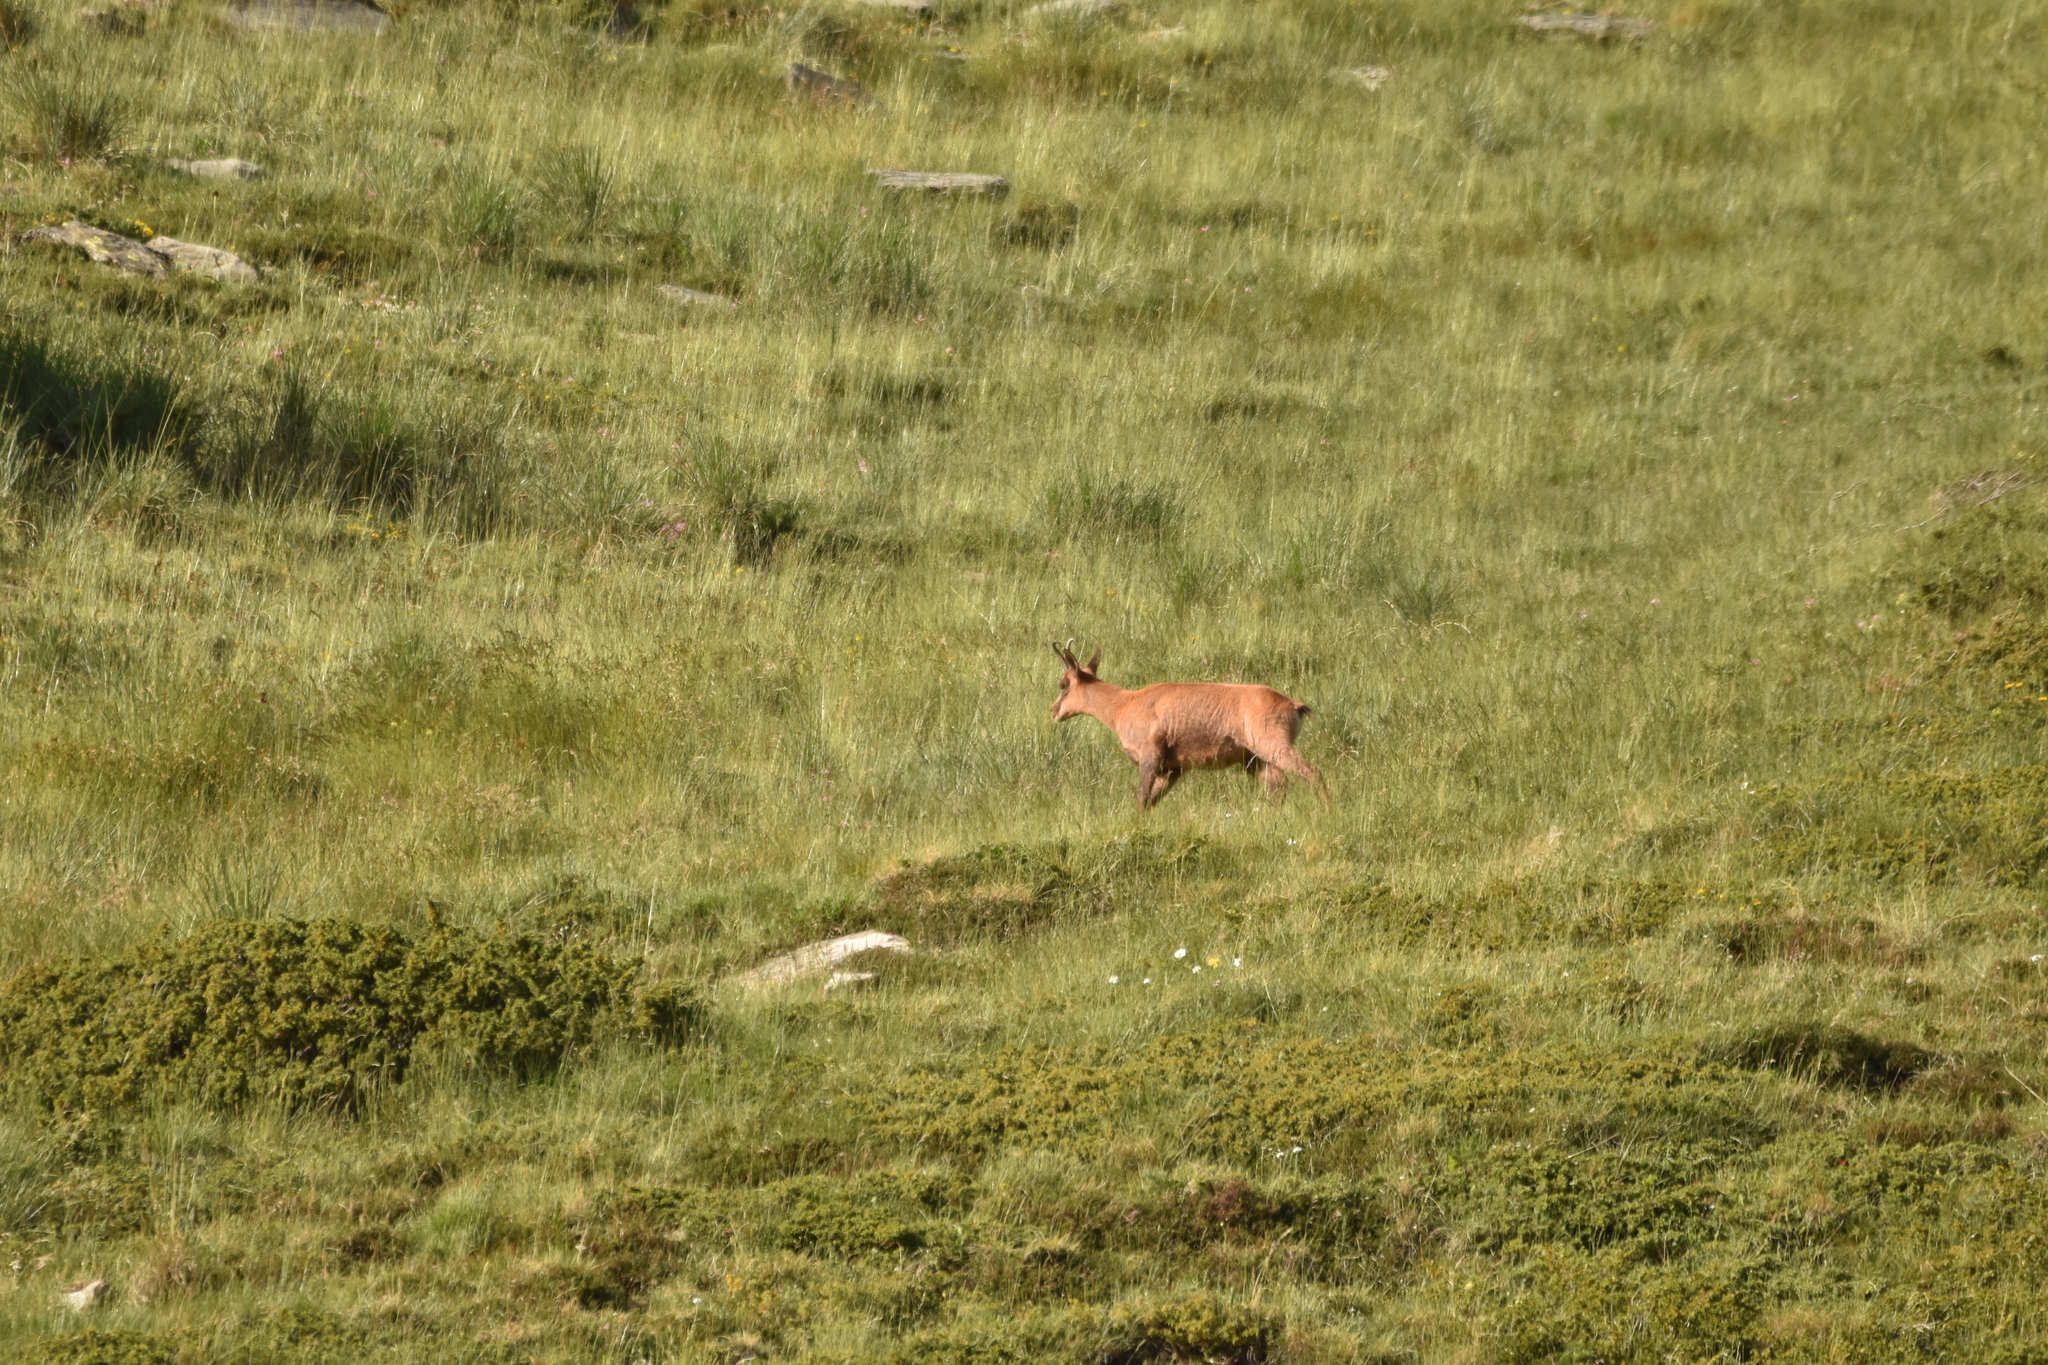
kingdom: Animalia
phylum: Chordata
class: Mammalia
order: Artiodactyla
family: Bovidae
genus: Rupicapra
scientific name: Rupicapra pyrenaica
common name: Pyrenean chamois
